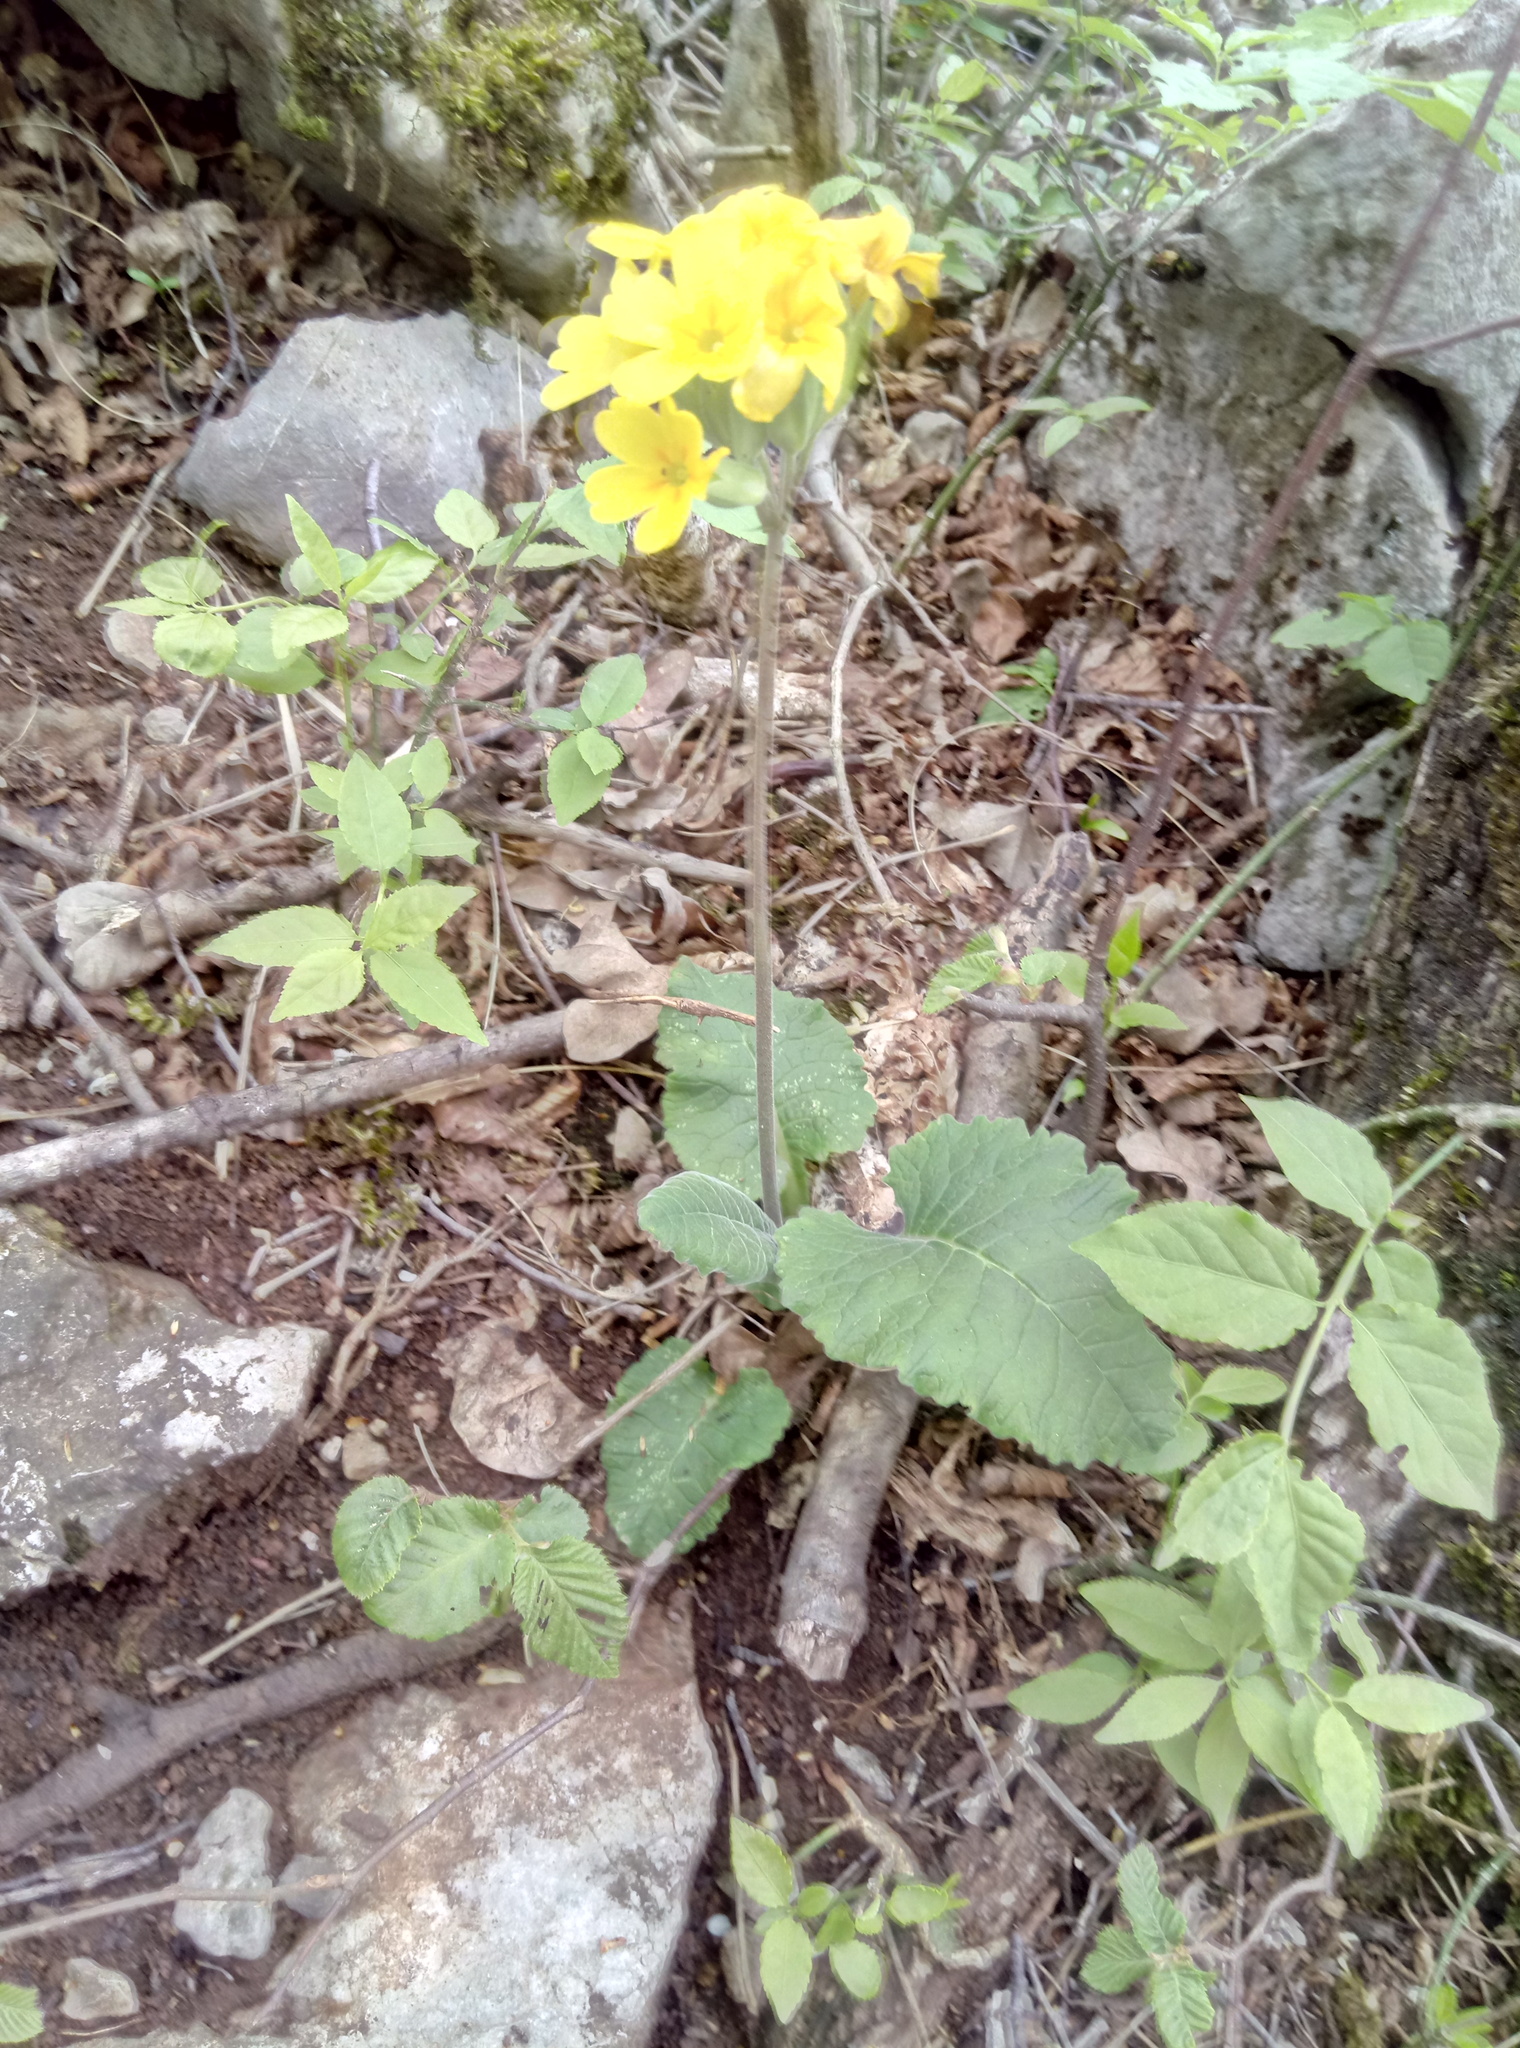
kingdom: Plantae
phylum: Tracheophyta
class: Magnoliopsida
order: Ericales
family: Primulaceae
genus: Primula
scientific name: Primula veris
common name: Cowslip
